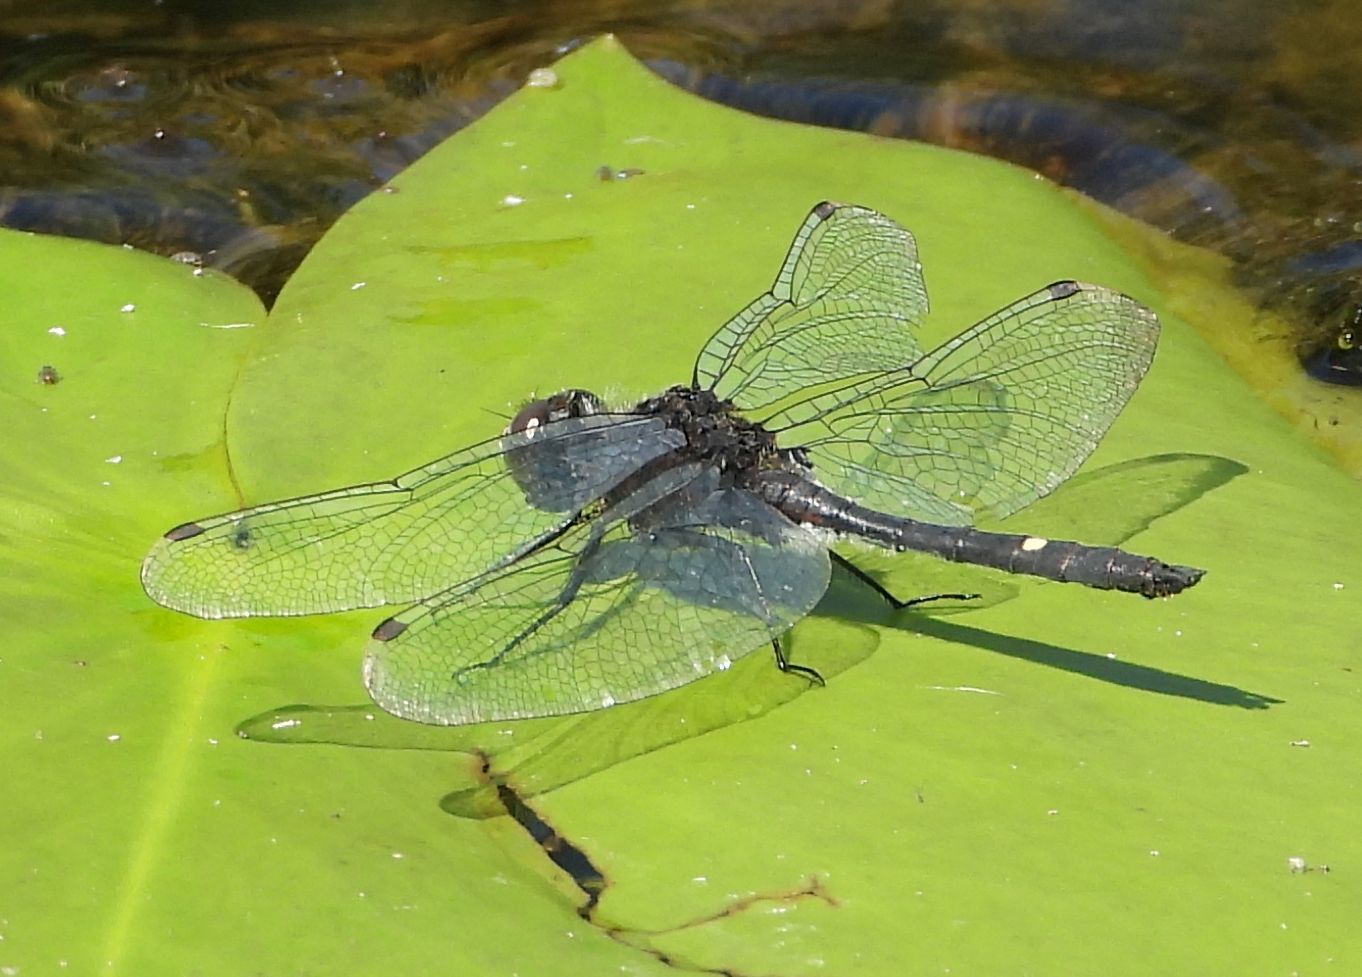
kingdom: Animalia
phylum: Arthropoda
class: Insecta
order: Odonata
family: Libellulidae
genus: Leucorrhinia
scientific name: Leucorrhinia intacta
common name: Dot-tailed whiteface
